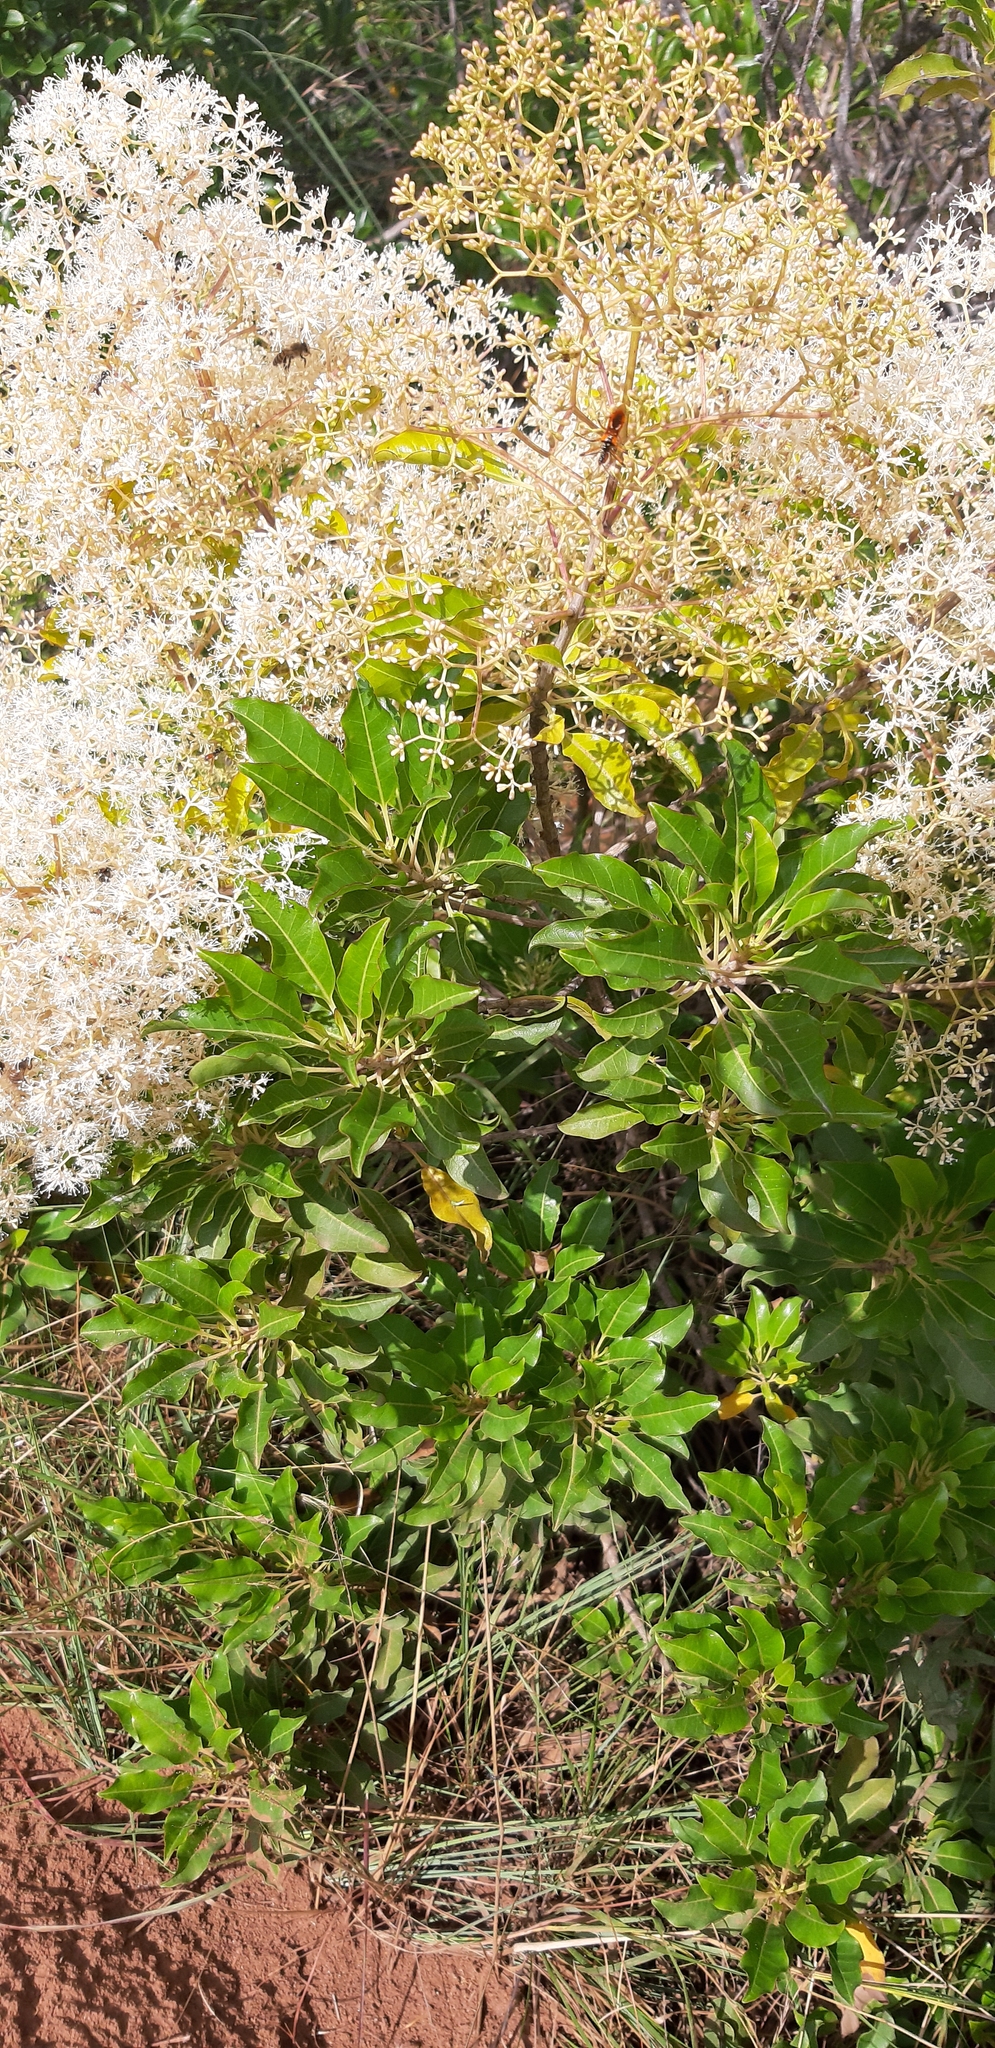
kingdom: Plantae
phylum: Tracheophyta
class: Magnoliopsida
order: Lamiales
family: Stilbaceae
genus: Nuxia
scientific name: Nuxia floribunda
